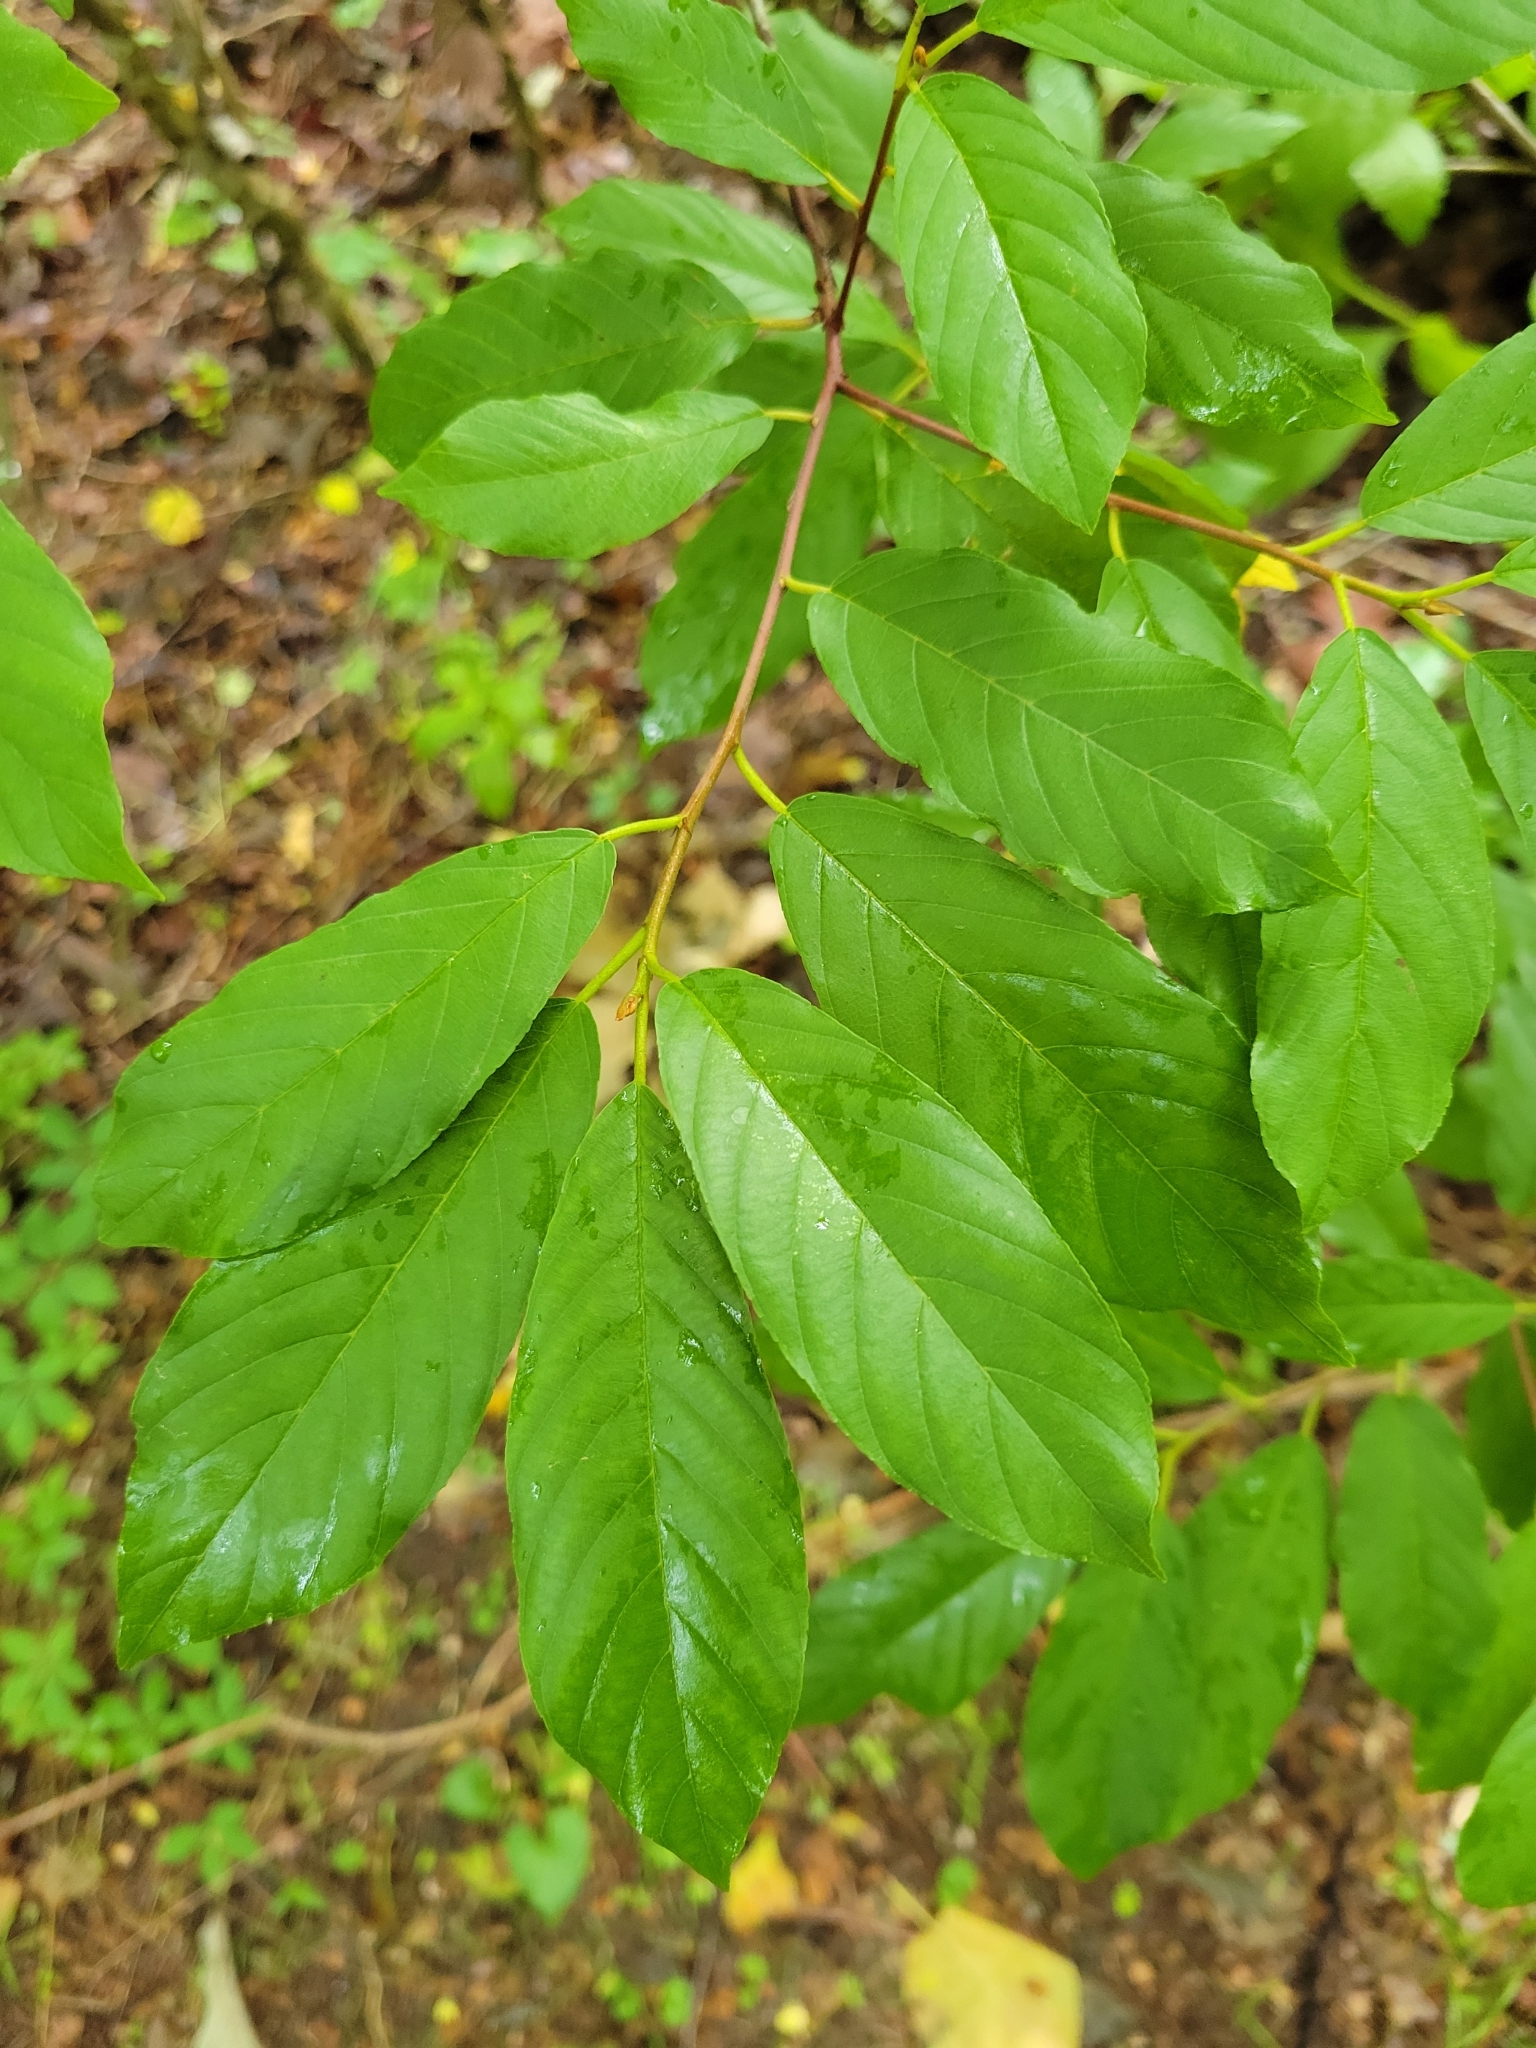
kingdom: Plantae
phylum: Tracheophyta
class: Magnoliopsida
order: Rosales
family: Rhamnaceae
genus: Frangula
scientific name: Frangula caroliniana
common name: Carolina buckthorn
